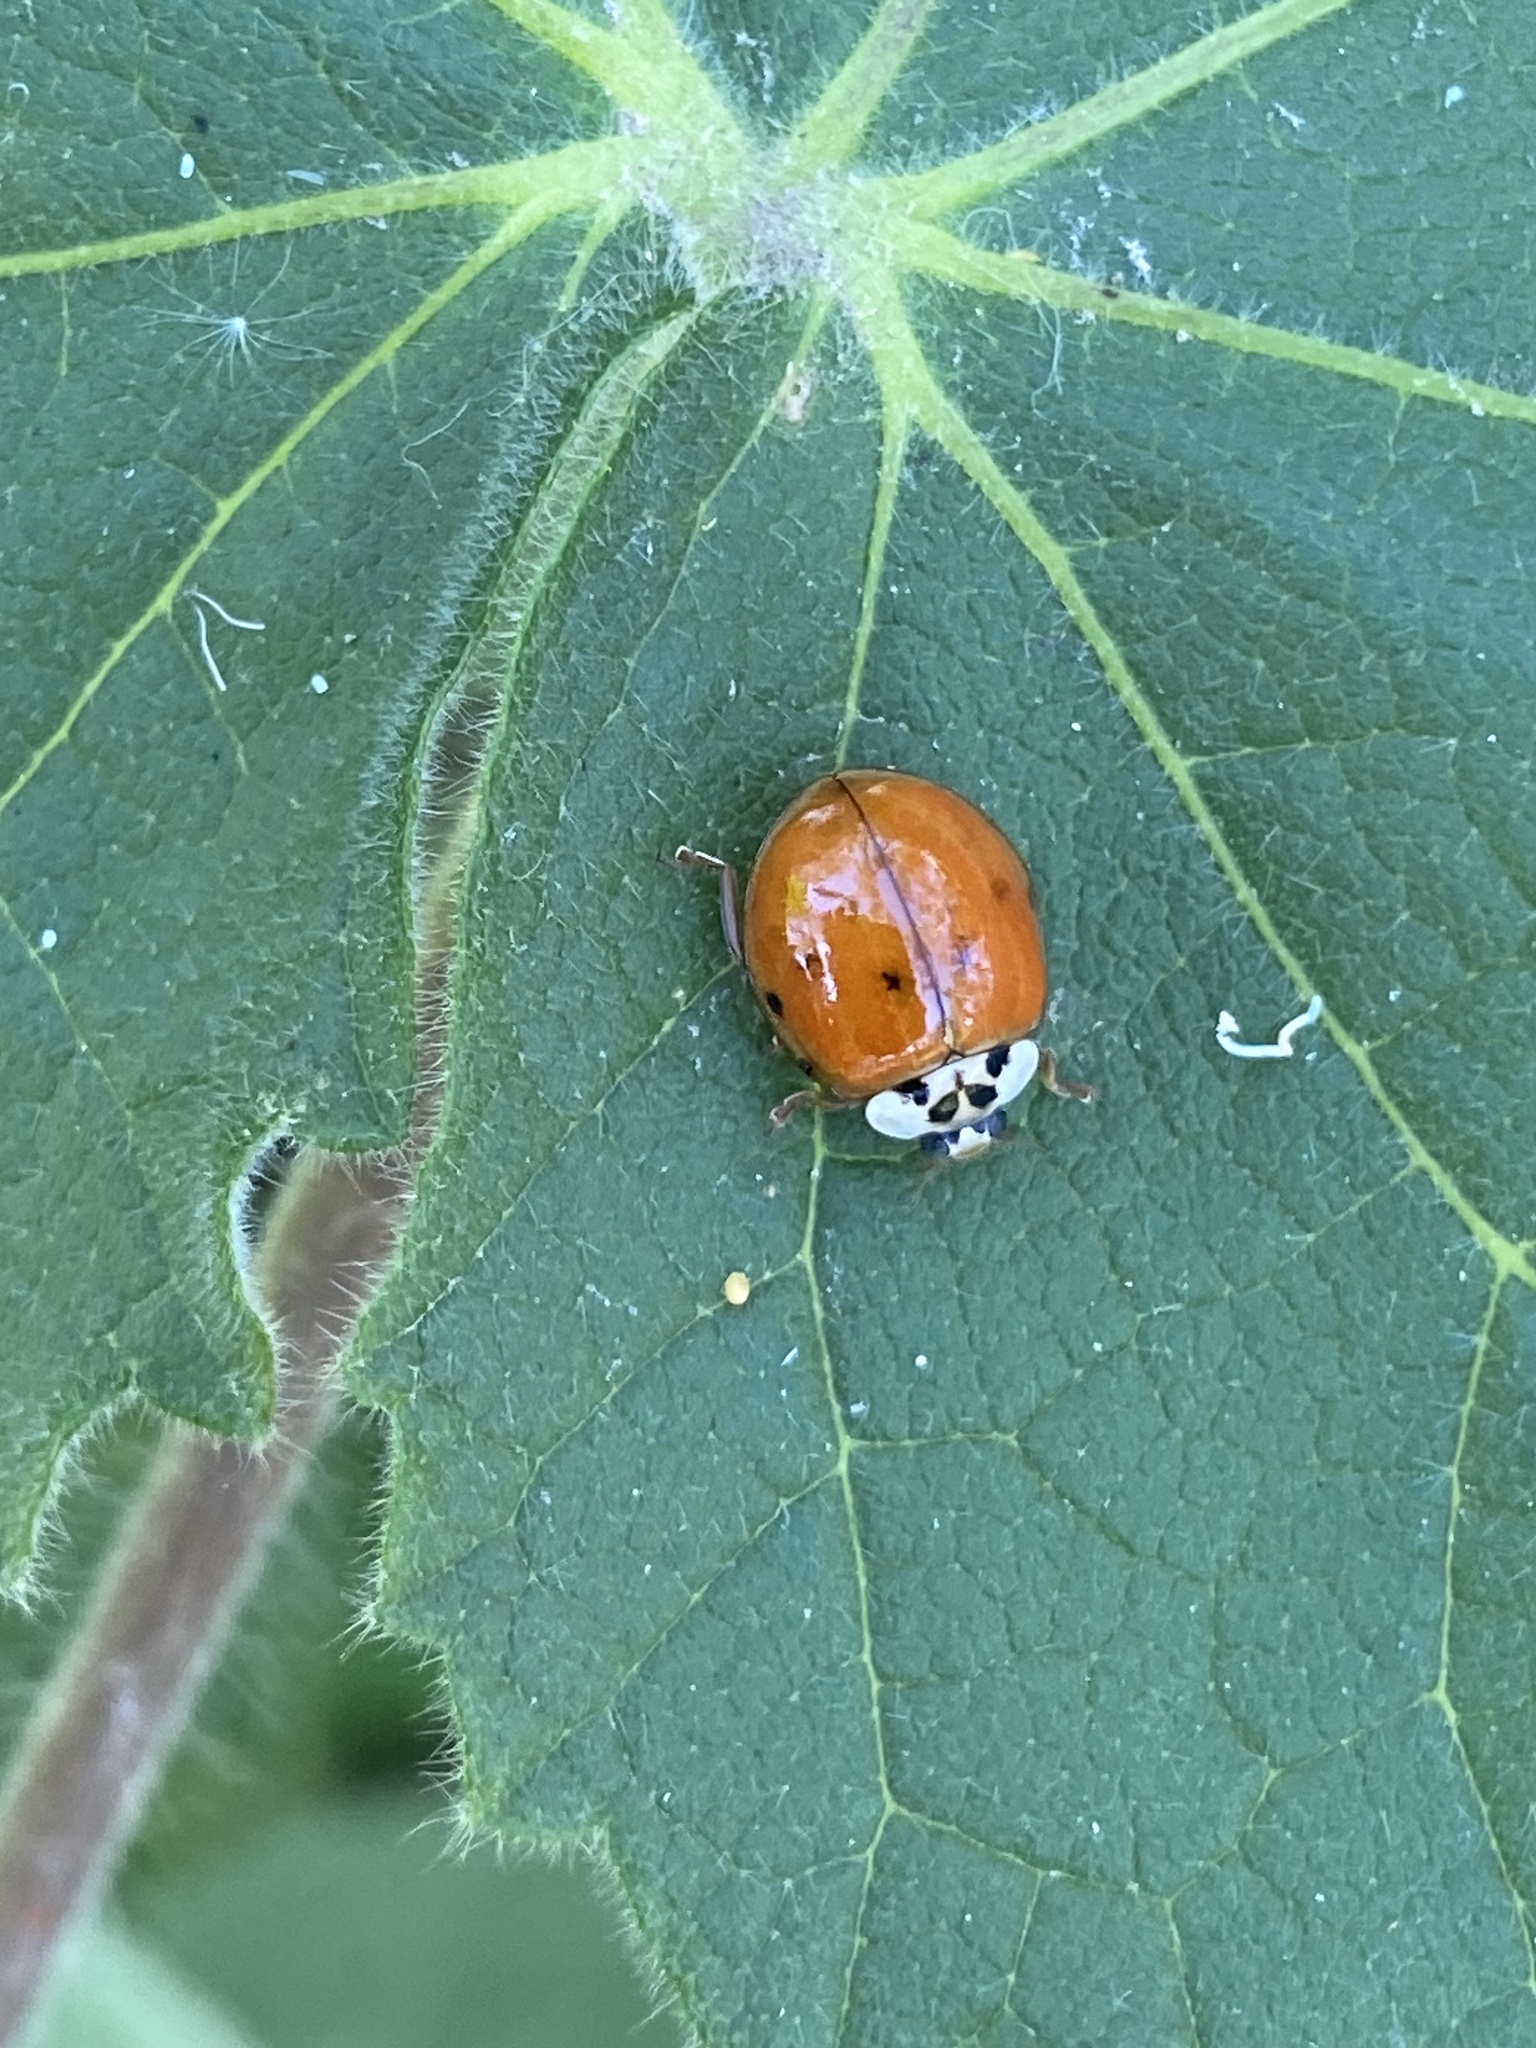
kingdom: Animalia
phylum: Arthropoda
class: Insecta
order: Coleoptera
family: Coccinellidae
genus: Harmonia
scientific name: Harmonia axyridis
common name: Harlequin ladybird
